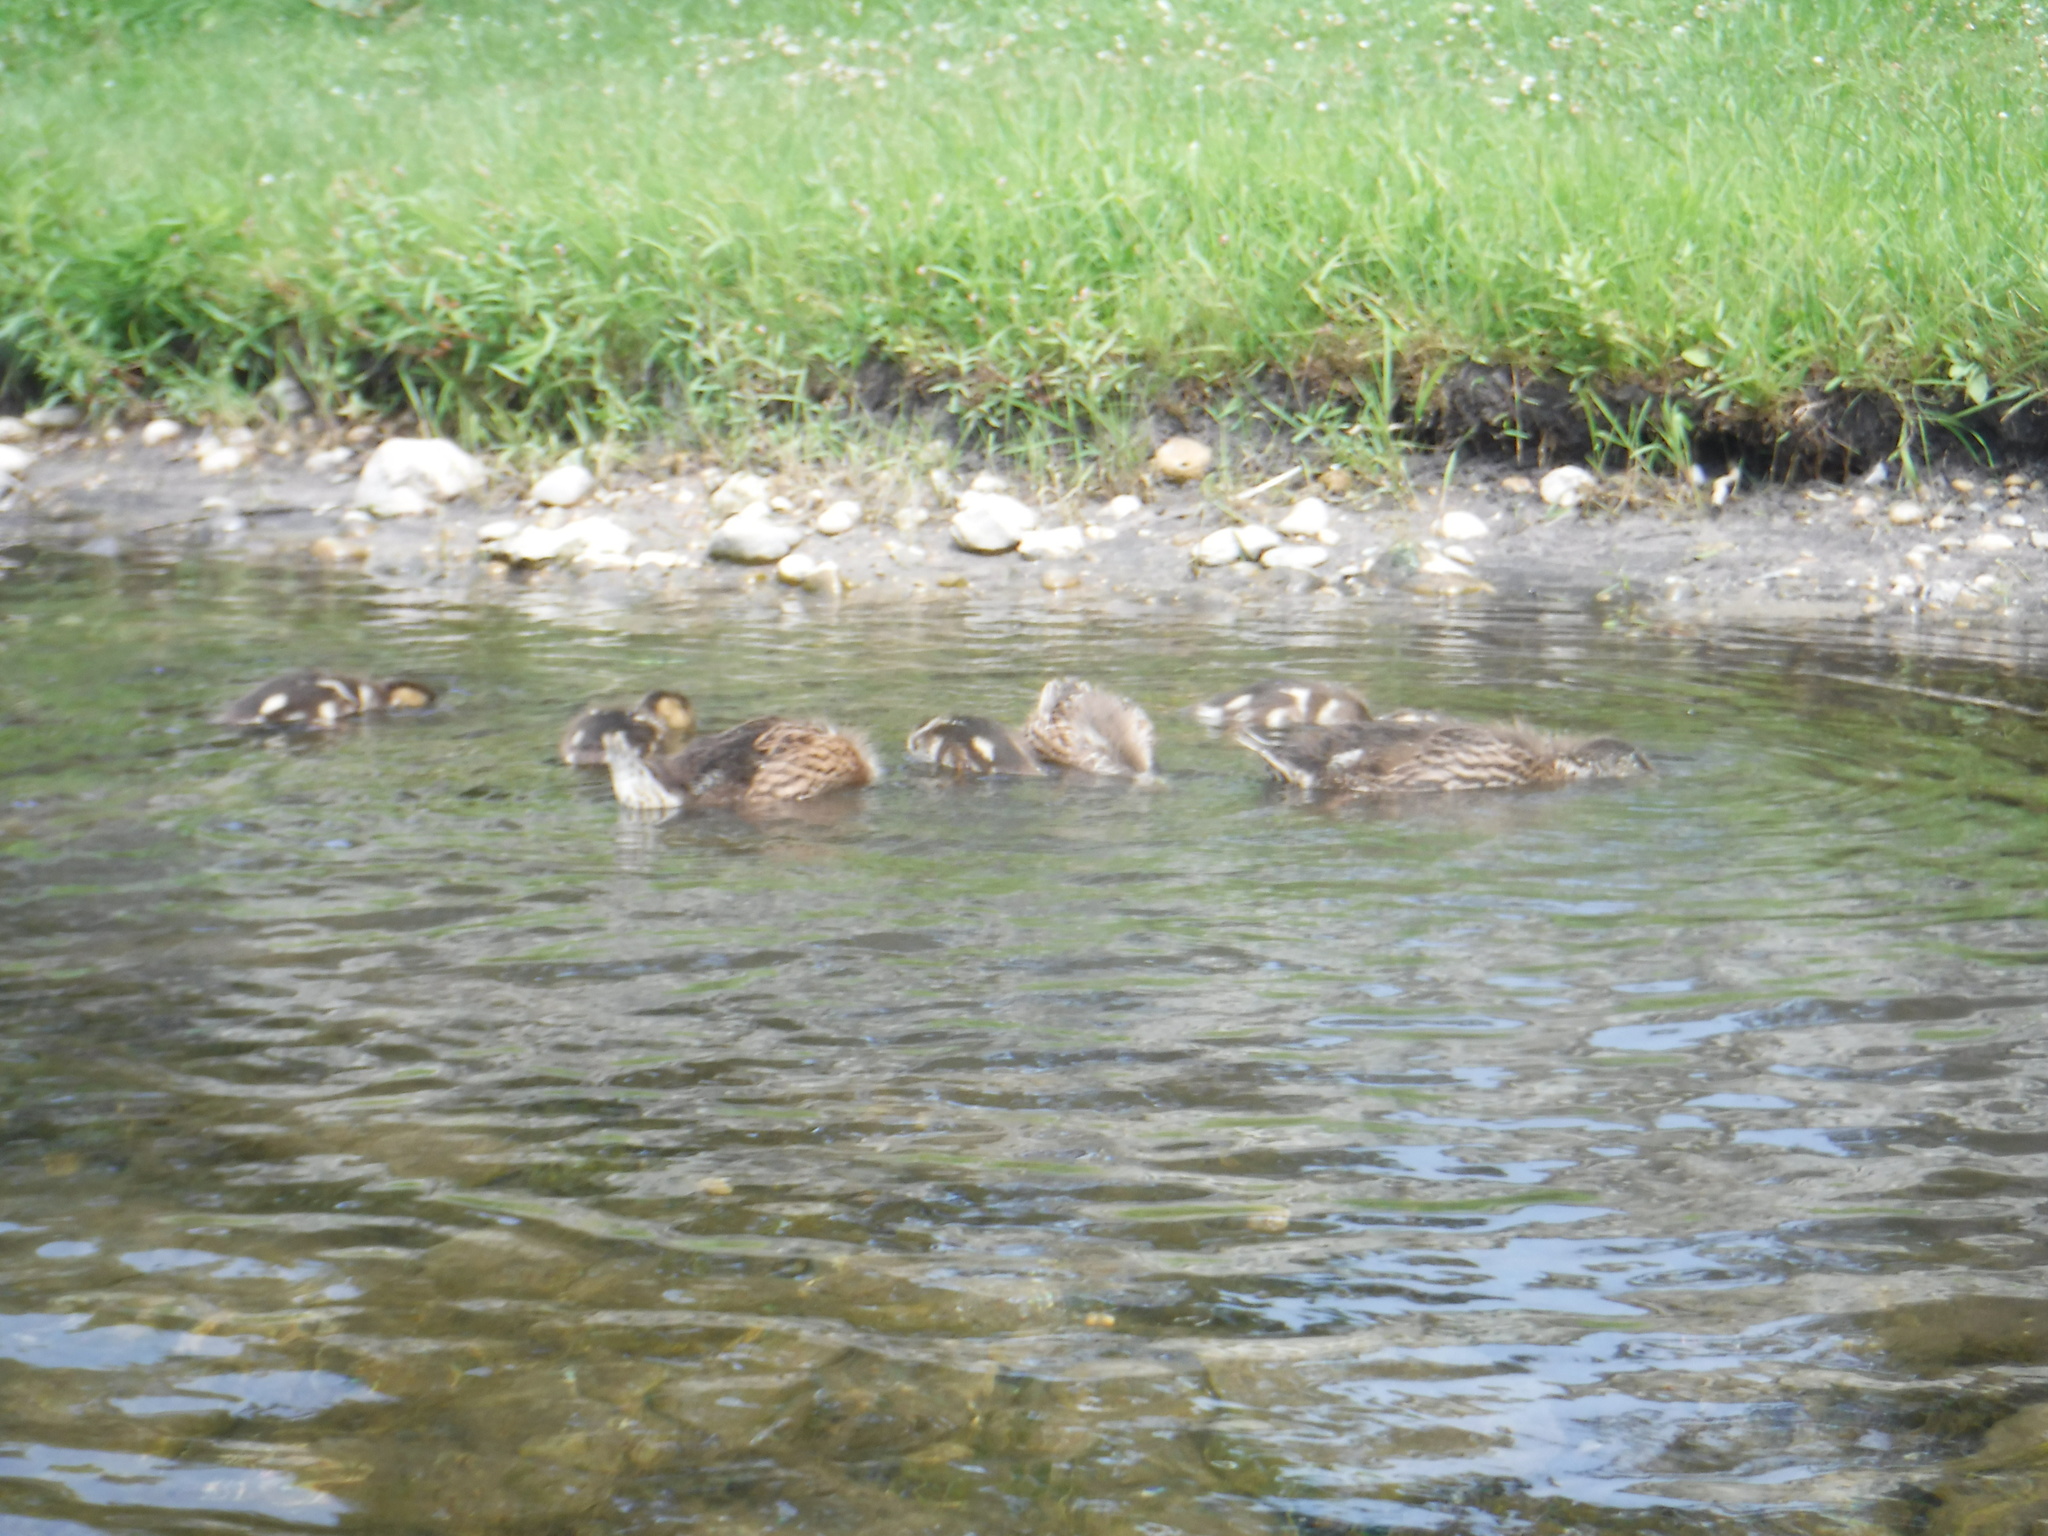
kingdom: Animalia
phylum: Chordata
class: Aves
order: Anseriformes
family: Anatidae
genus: Anas
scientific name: Anas platyrhynchos
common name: Mallard
